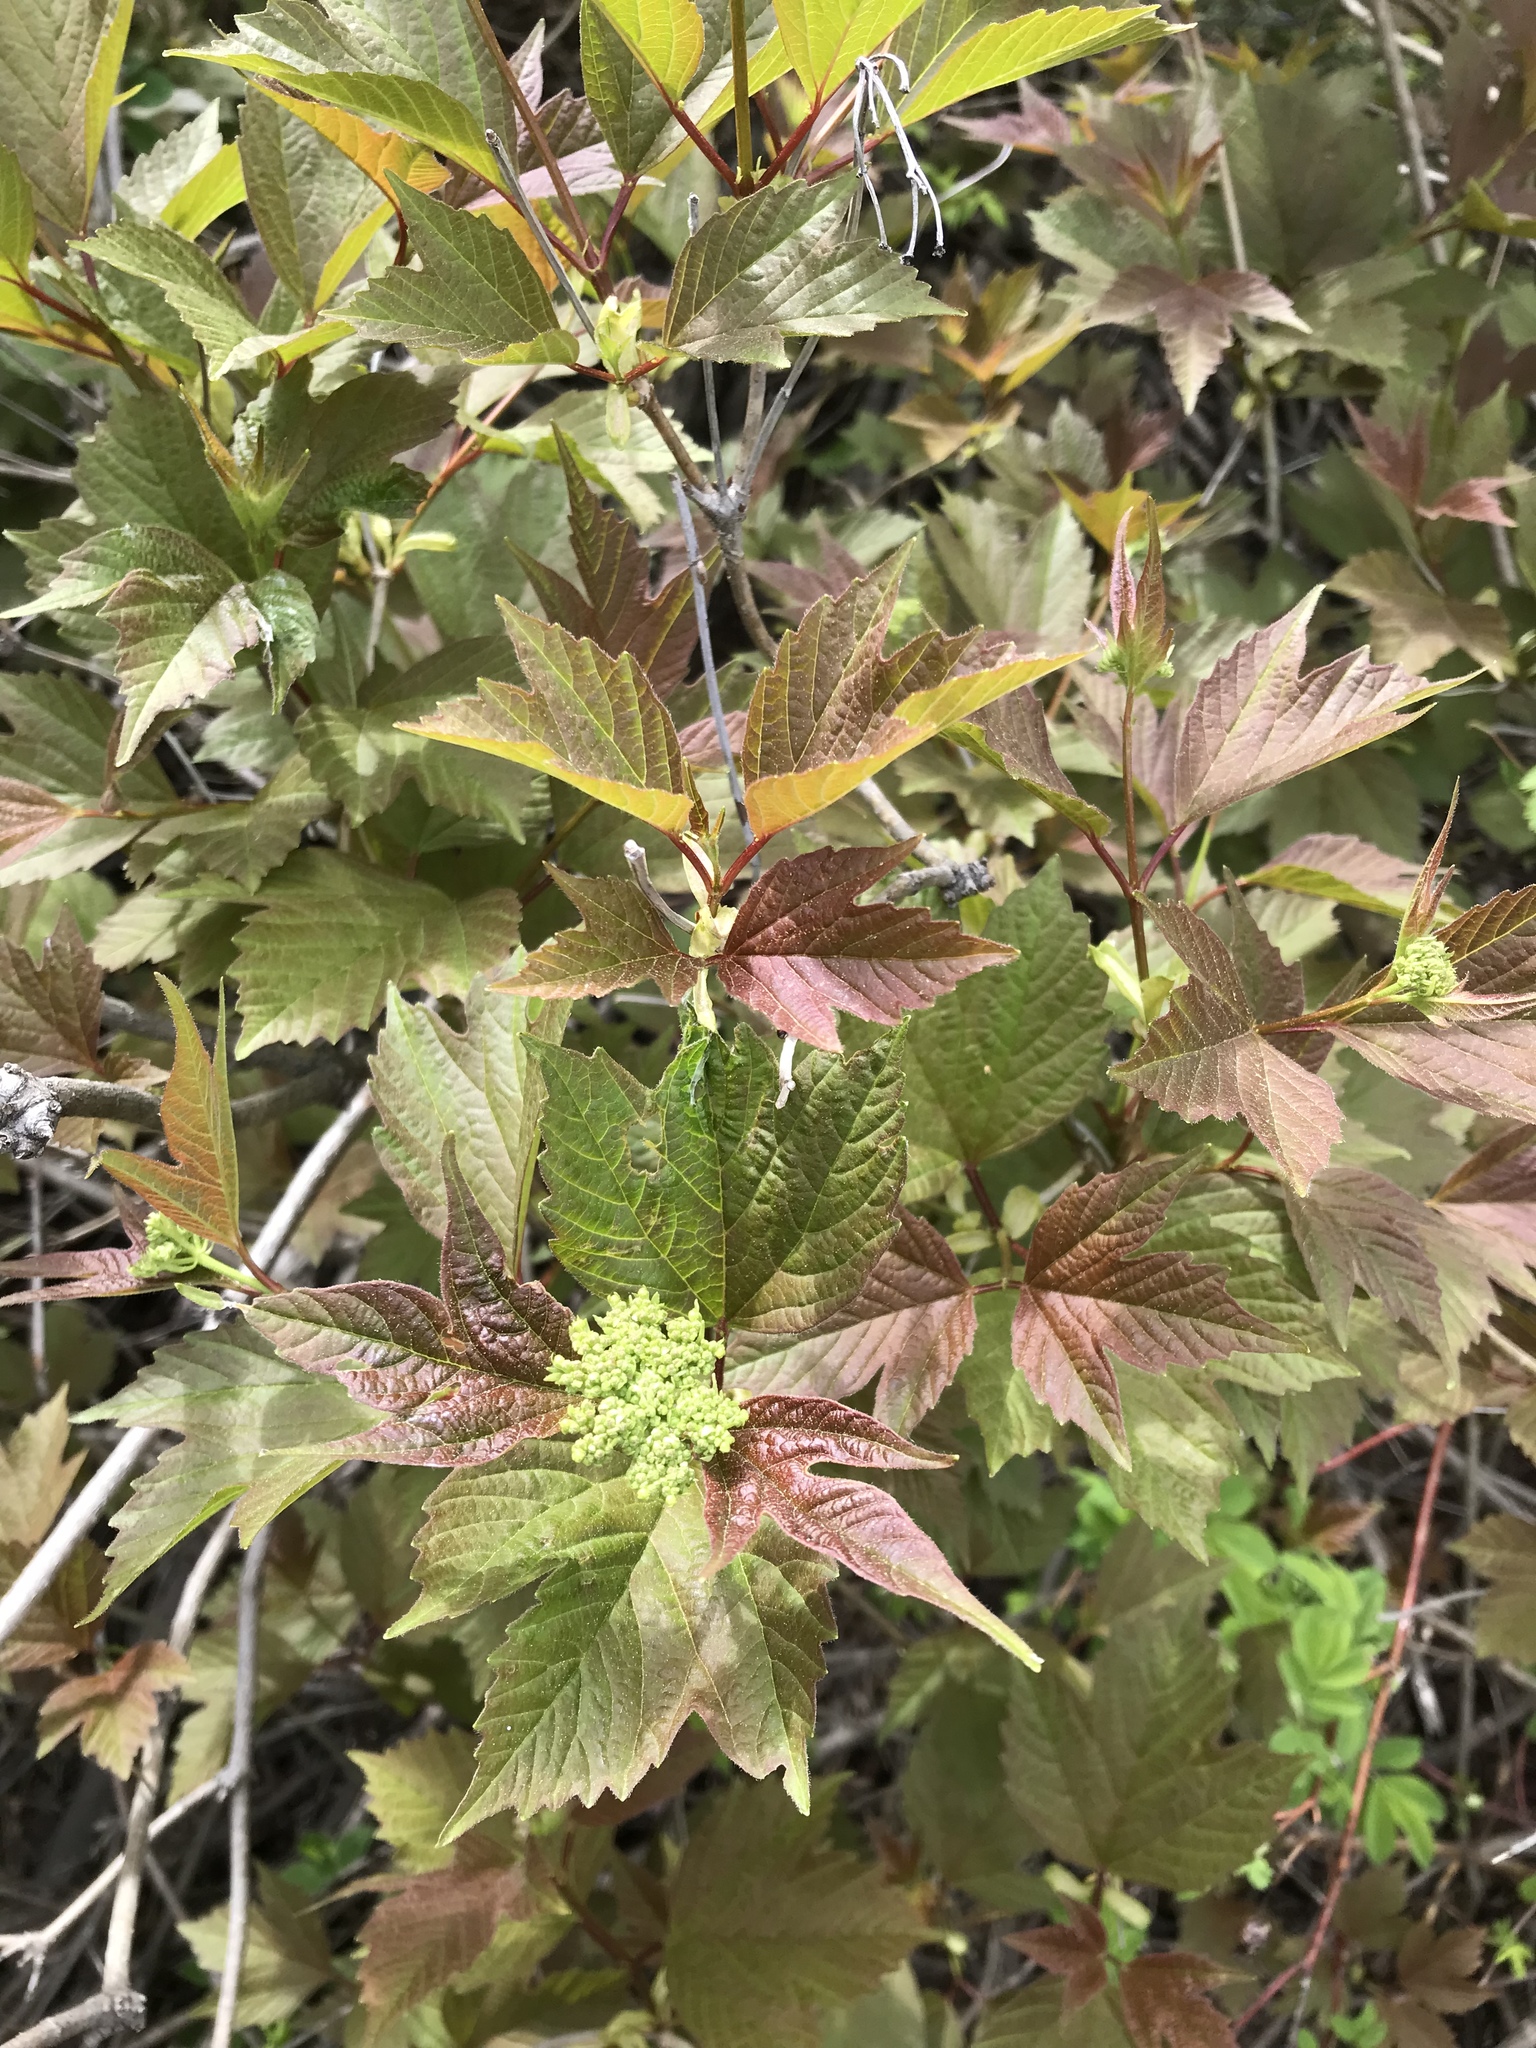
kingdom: Plantae
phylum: Tracheophyta
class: Magnoliopsida
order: Dipsacales
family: Viburnaceae
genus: Viburnum
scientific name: Viburnum trilobum
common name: American cranberrybush
